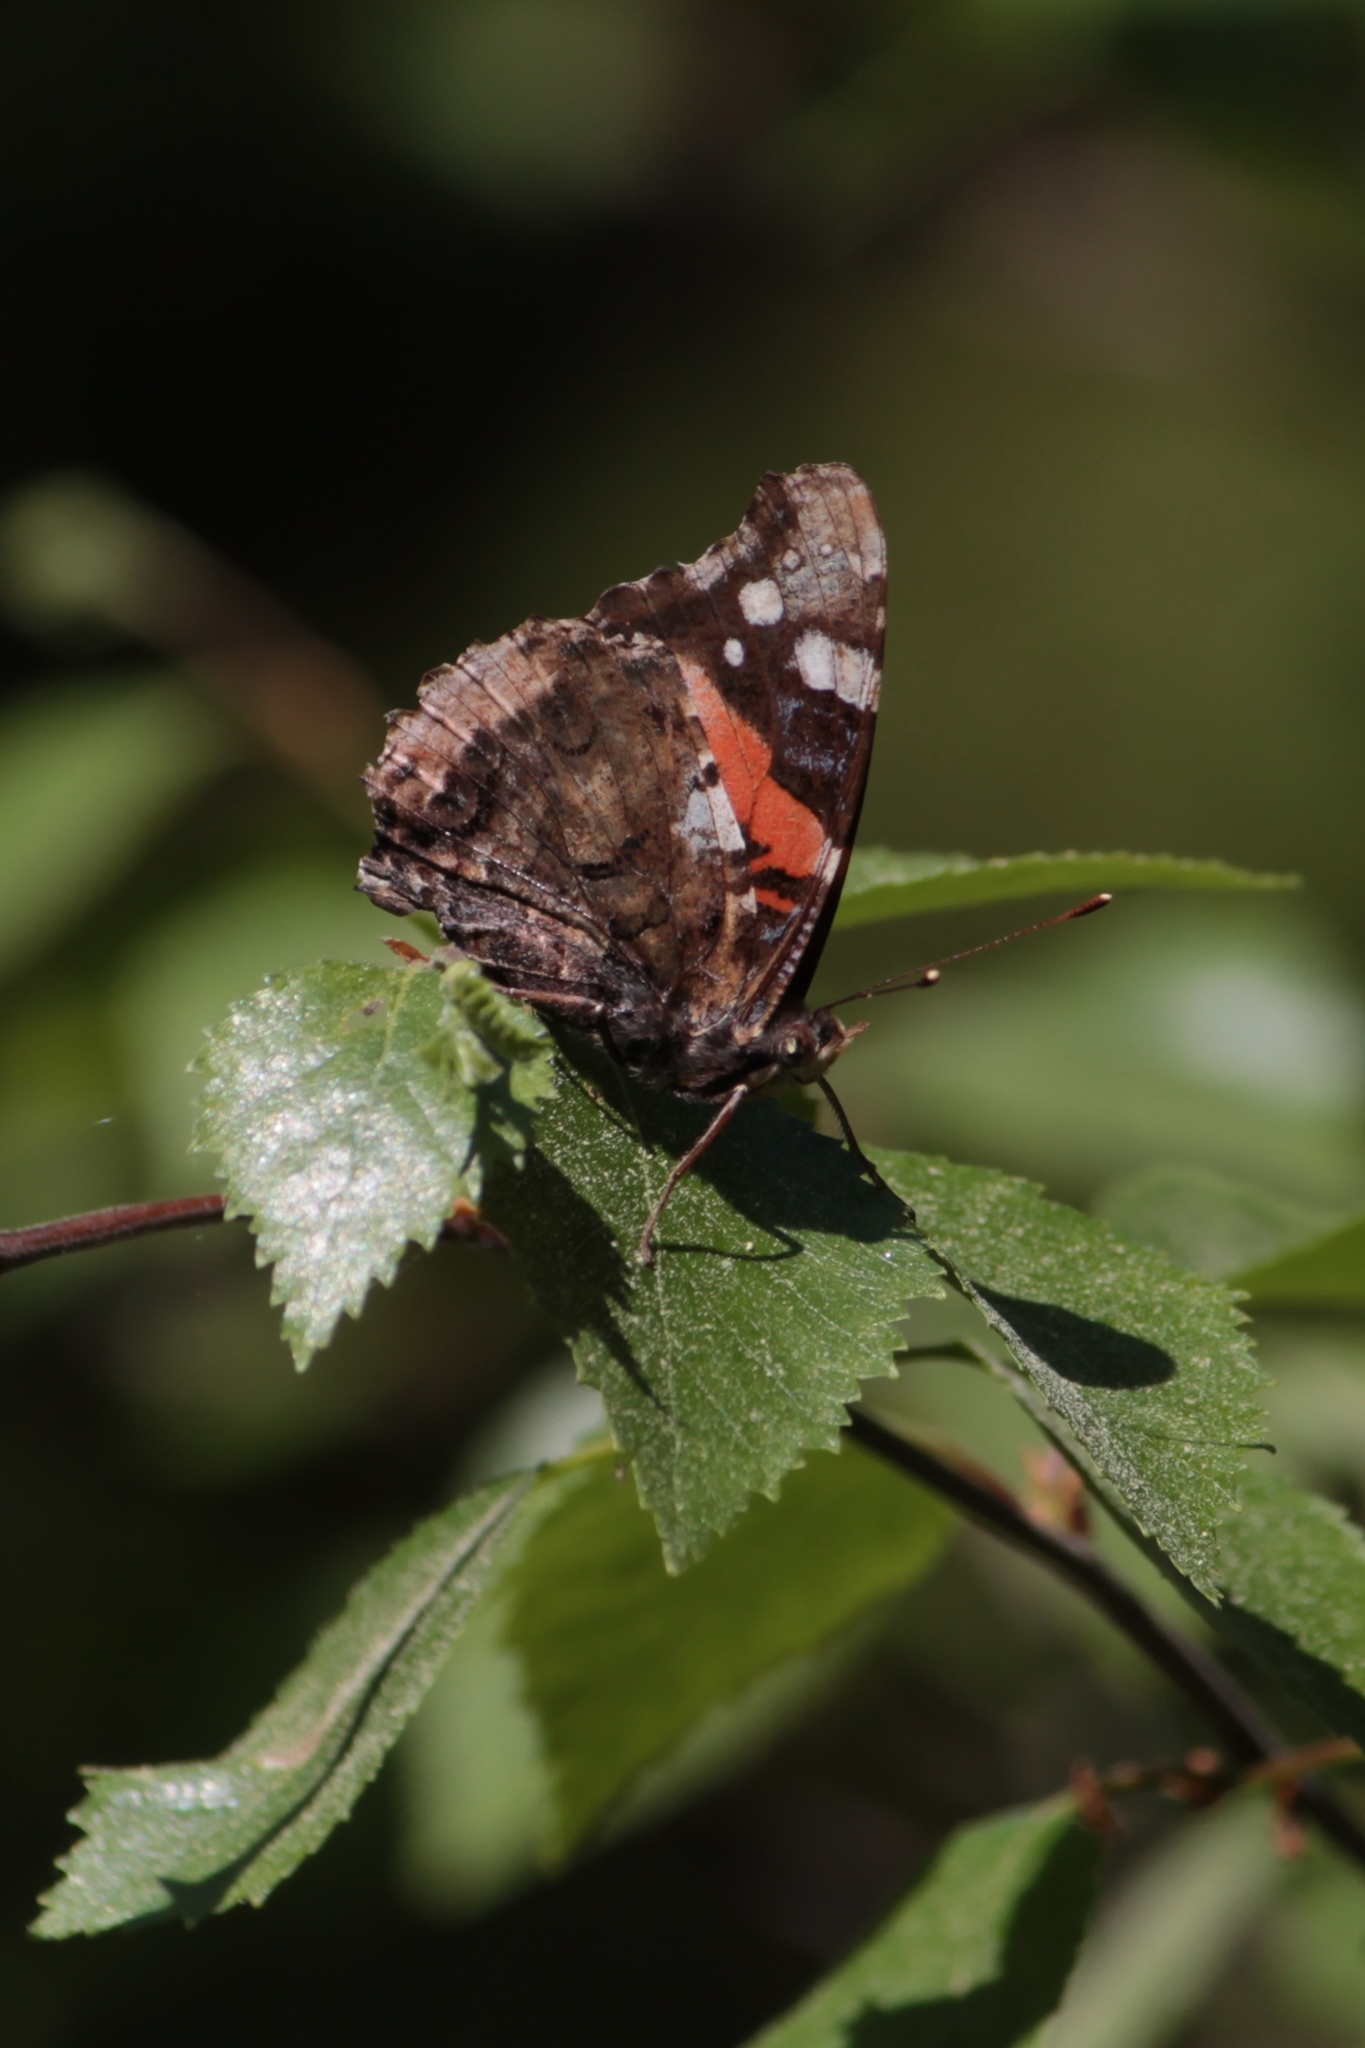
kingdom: Animalia
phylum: Arthropoda
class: Insecta
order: Lepidoptera
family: Nymphalidae
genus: Vanessa
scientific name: Vanessa atalanta
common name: Red admiral
